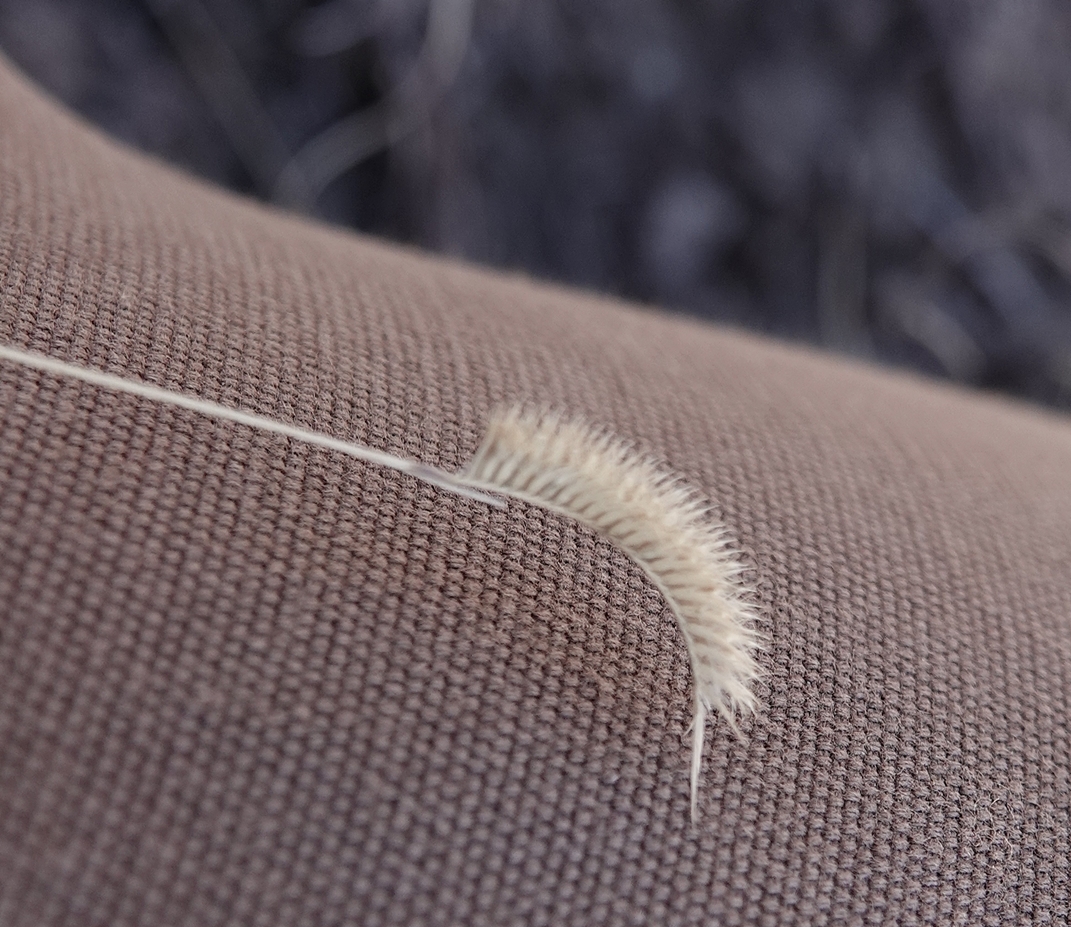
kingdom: Plantae
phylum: Tracheophyta
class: Liliopsida
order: Poales
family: Poaceae
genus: Bouteloua
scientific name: Bouteloua hirsuta
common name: Hairy grama
